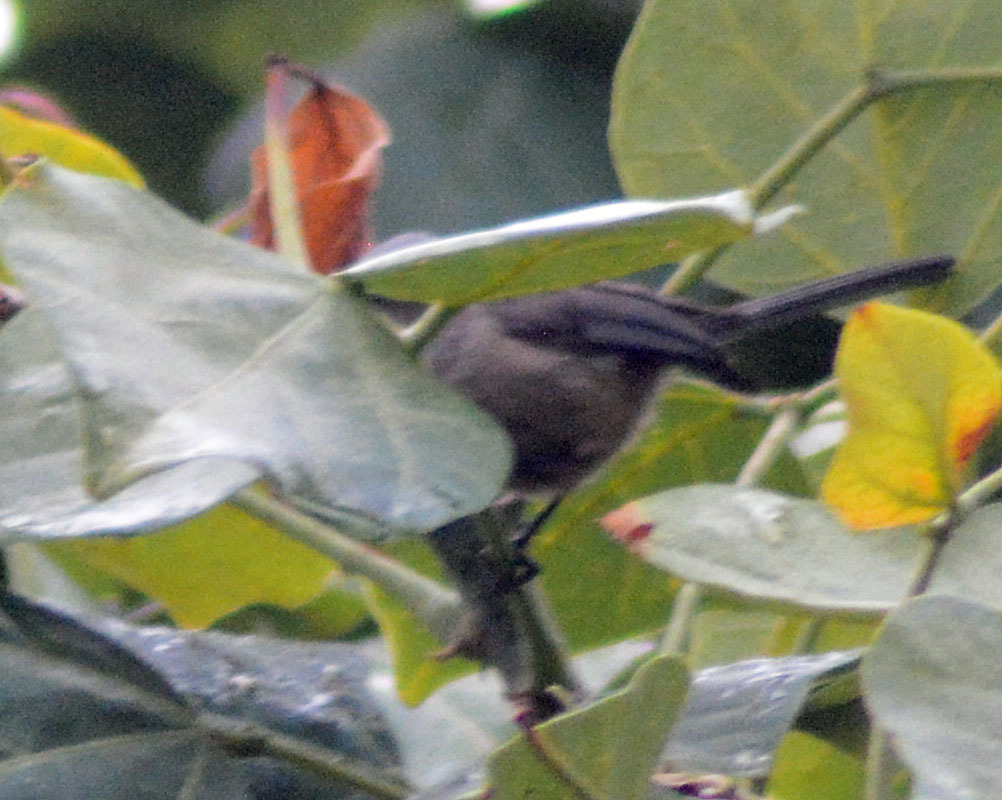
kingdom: Animalia
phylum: Chordata
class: Aves
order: Passeriformes
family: Aegithalidae
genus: Psaltriparus
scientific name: Psaltriparus minimus
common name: American bushtit
